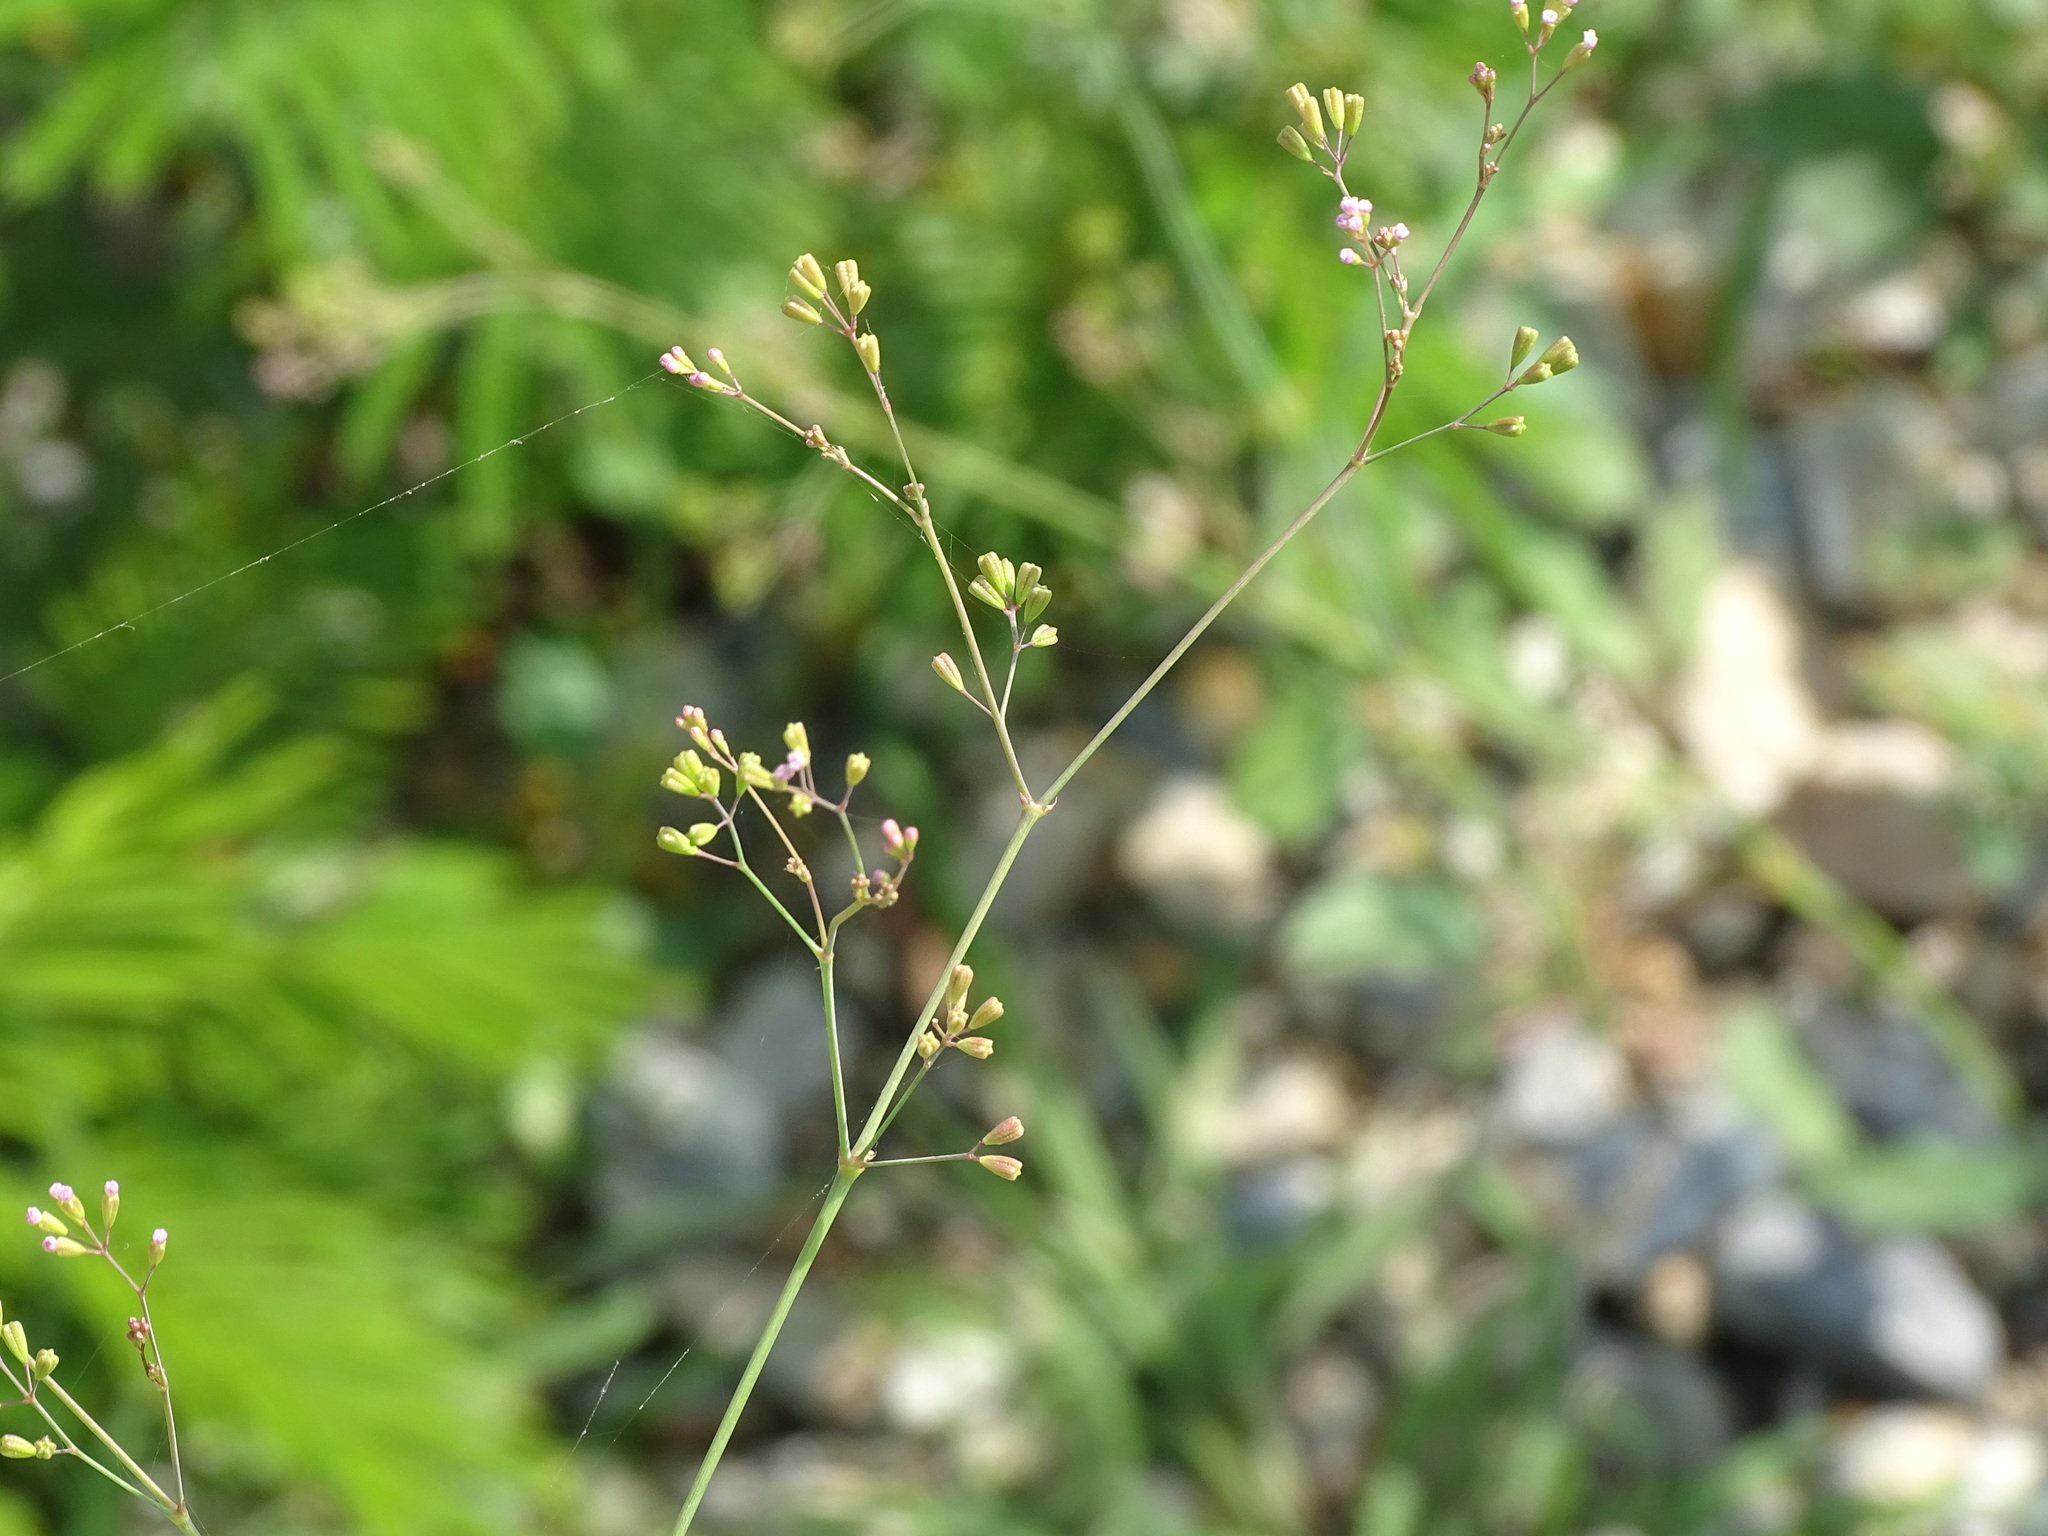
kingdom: Plantae
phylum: Tracheophyta
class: Magnoliopsida
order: Caryophyllales
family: Nyctaginaceae
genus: Boerhavia
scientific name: Boerhavia erecta
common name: Erect spiderling
